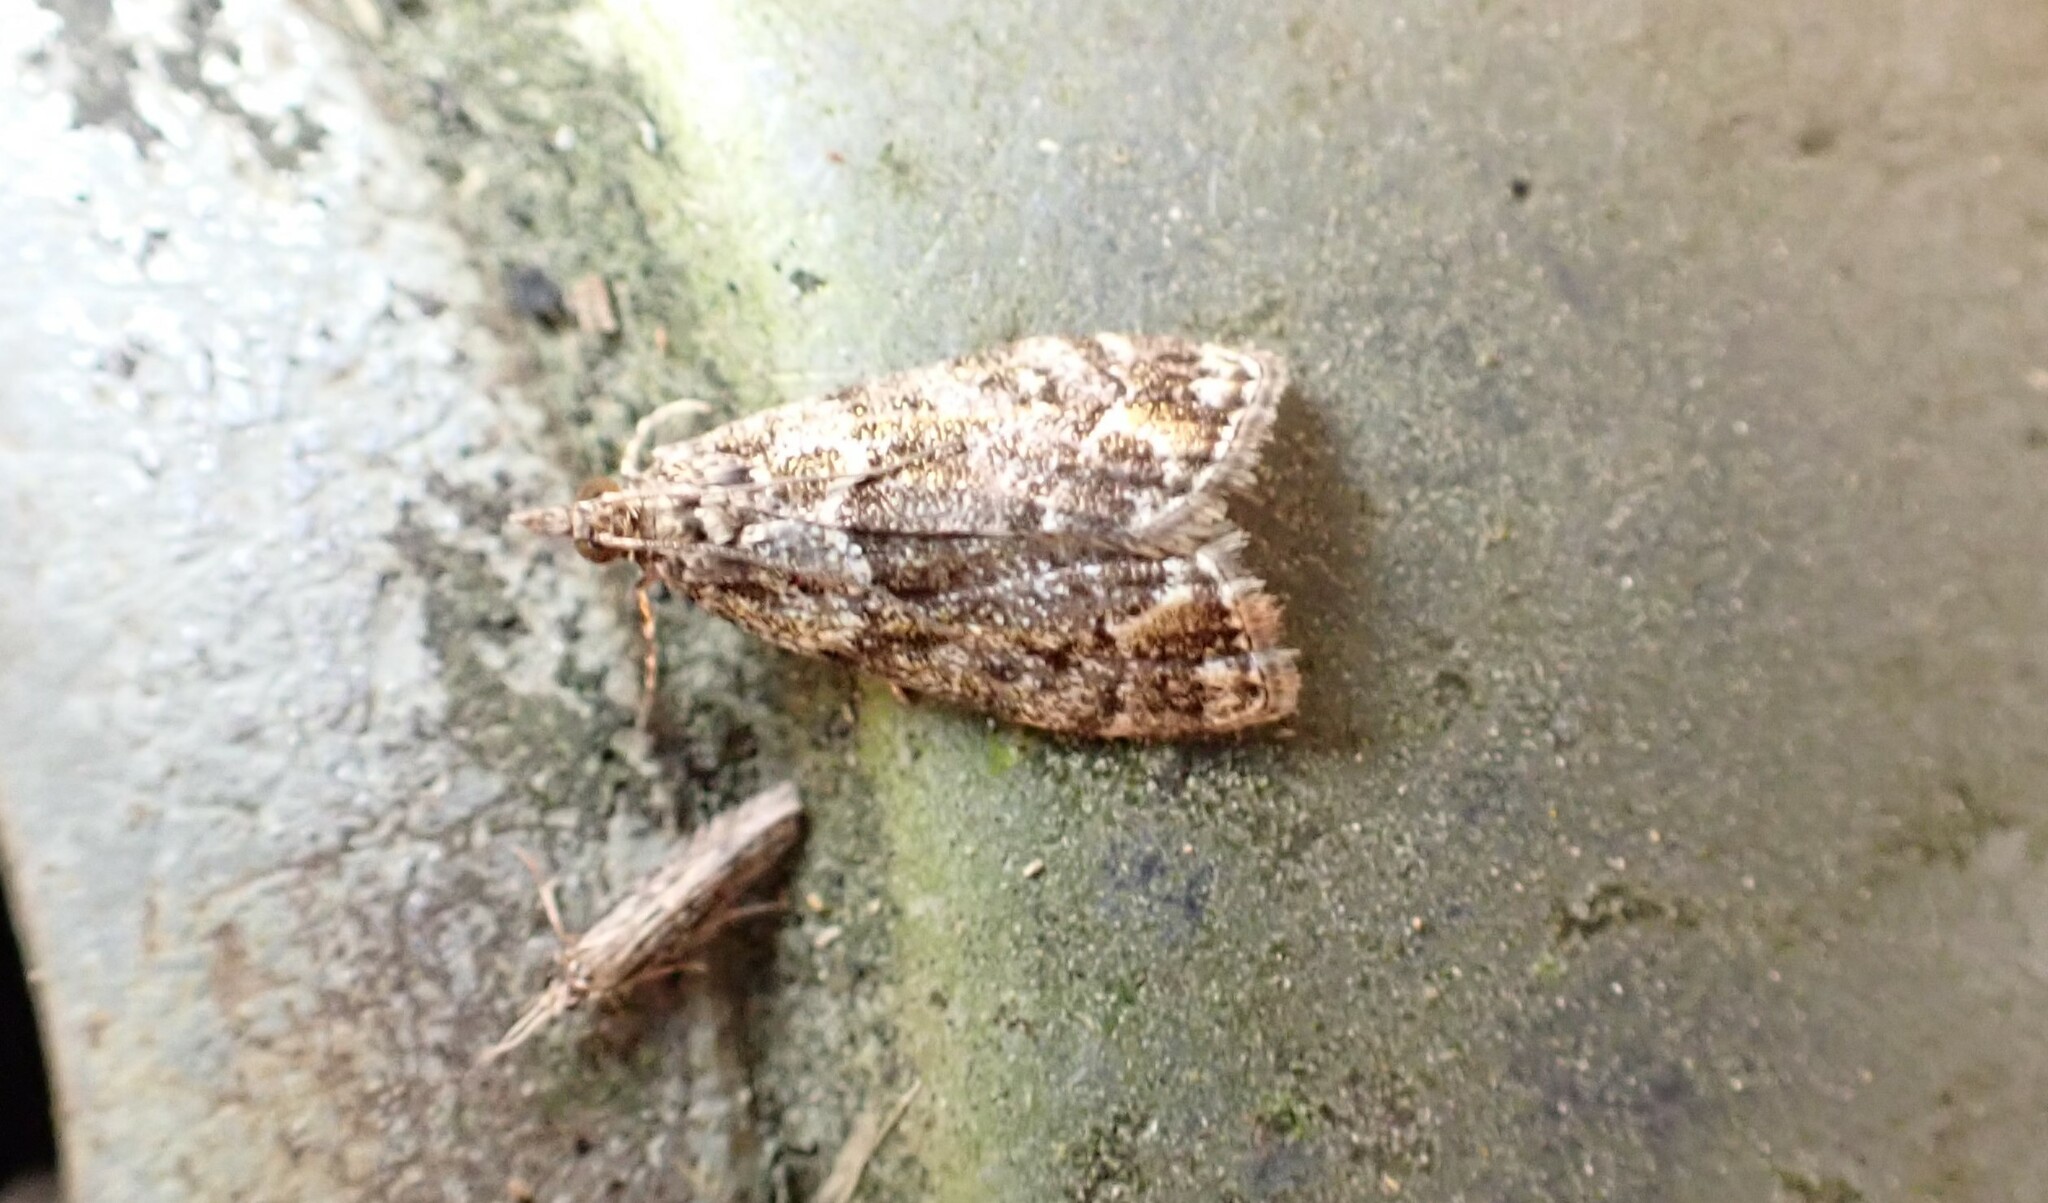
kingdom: Animalia
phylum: Arthropoda
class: Insecta
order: Lepidoptera
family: Crambidae
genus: Eudonia
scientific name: Eudonia minualis
